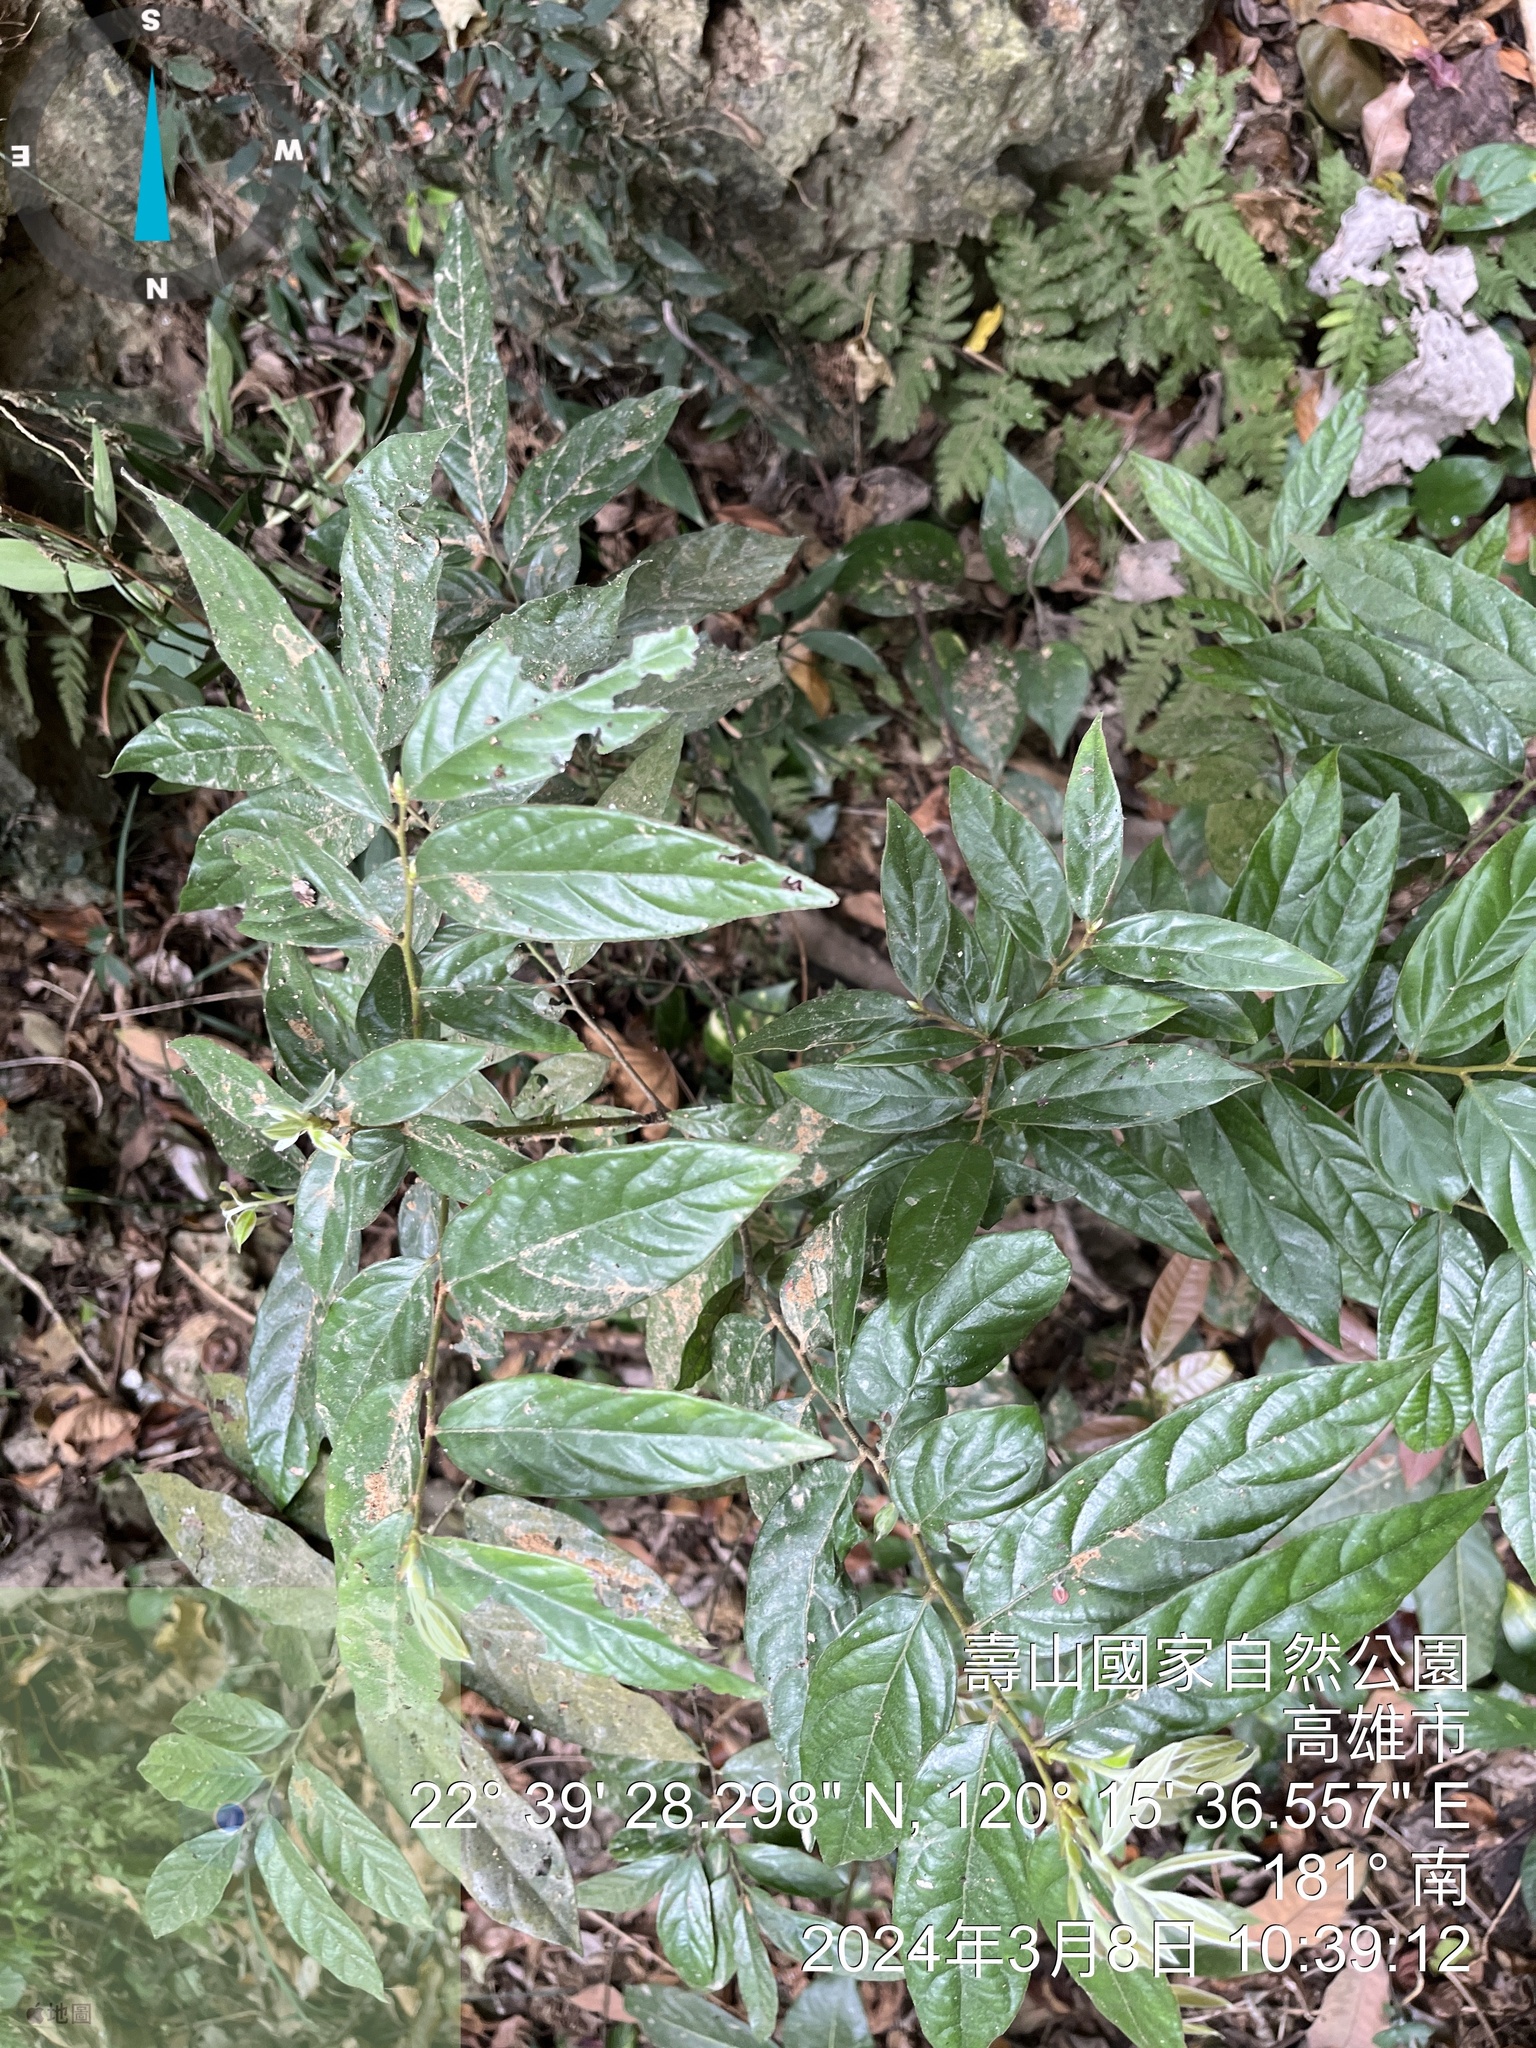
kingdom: Plantae
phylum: Tracheophyta
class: Magnoliopsida
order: Ericales
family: Ebenaceae
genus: Diospyros
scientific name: Diospyros eriantha
